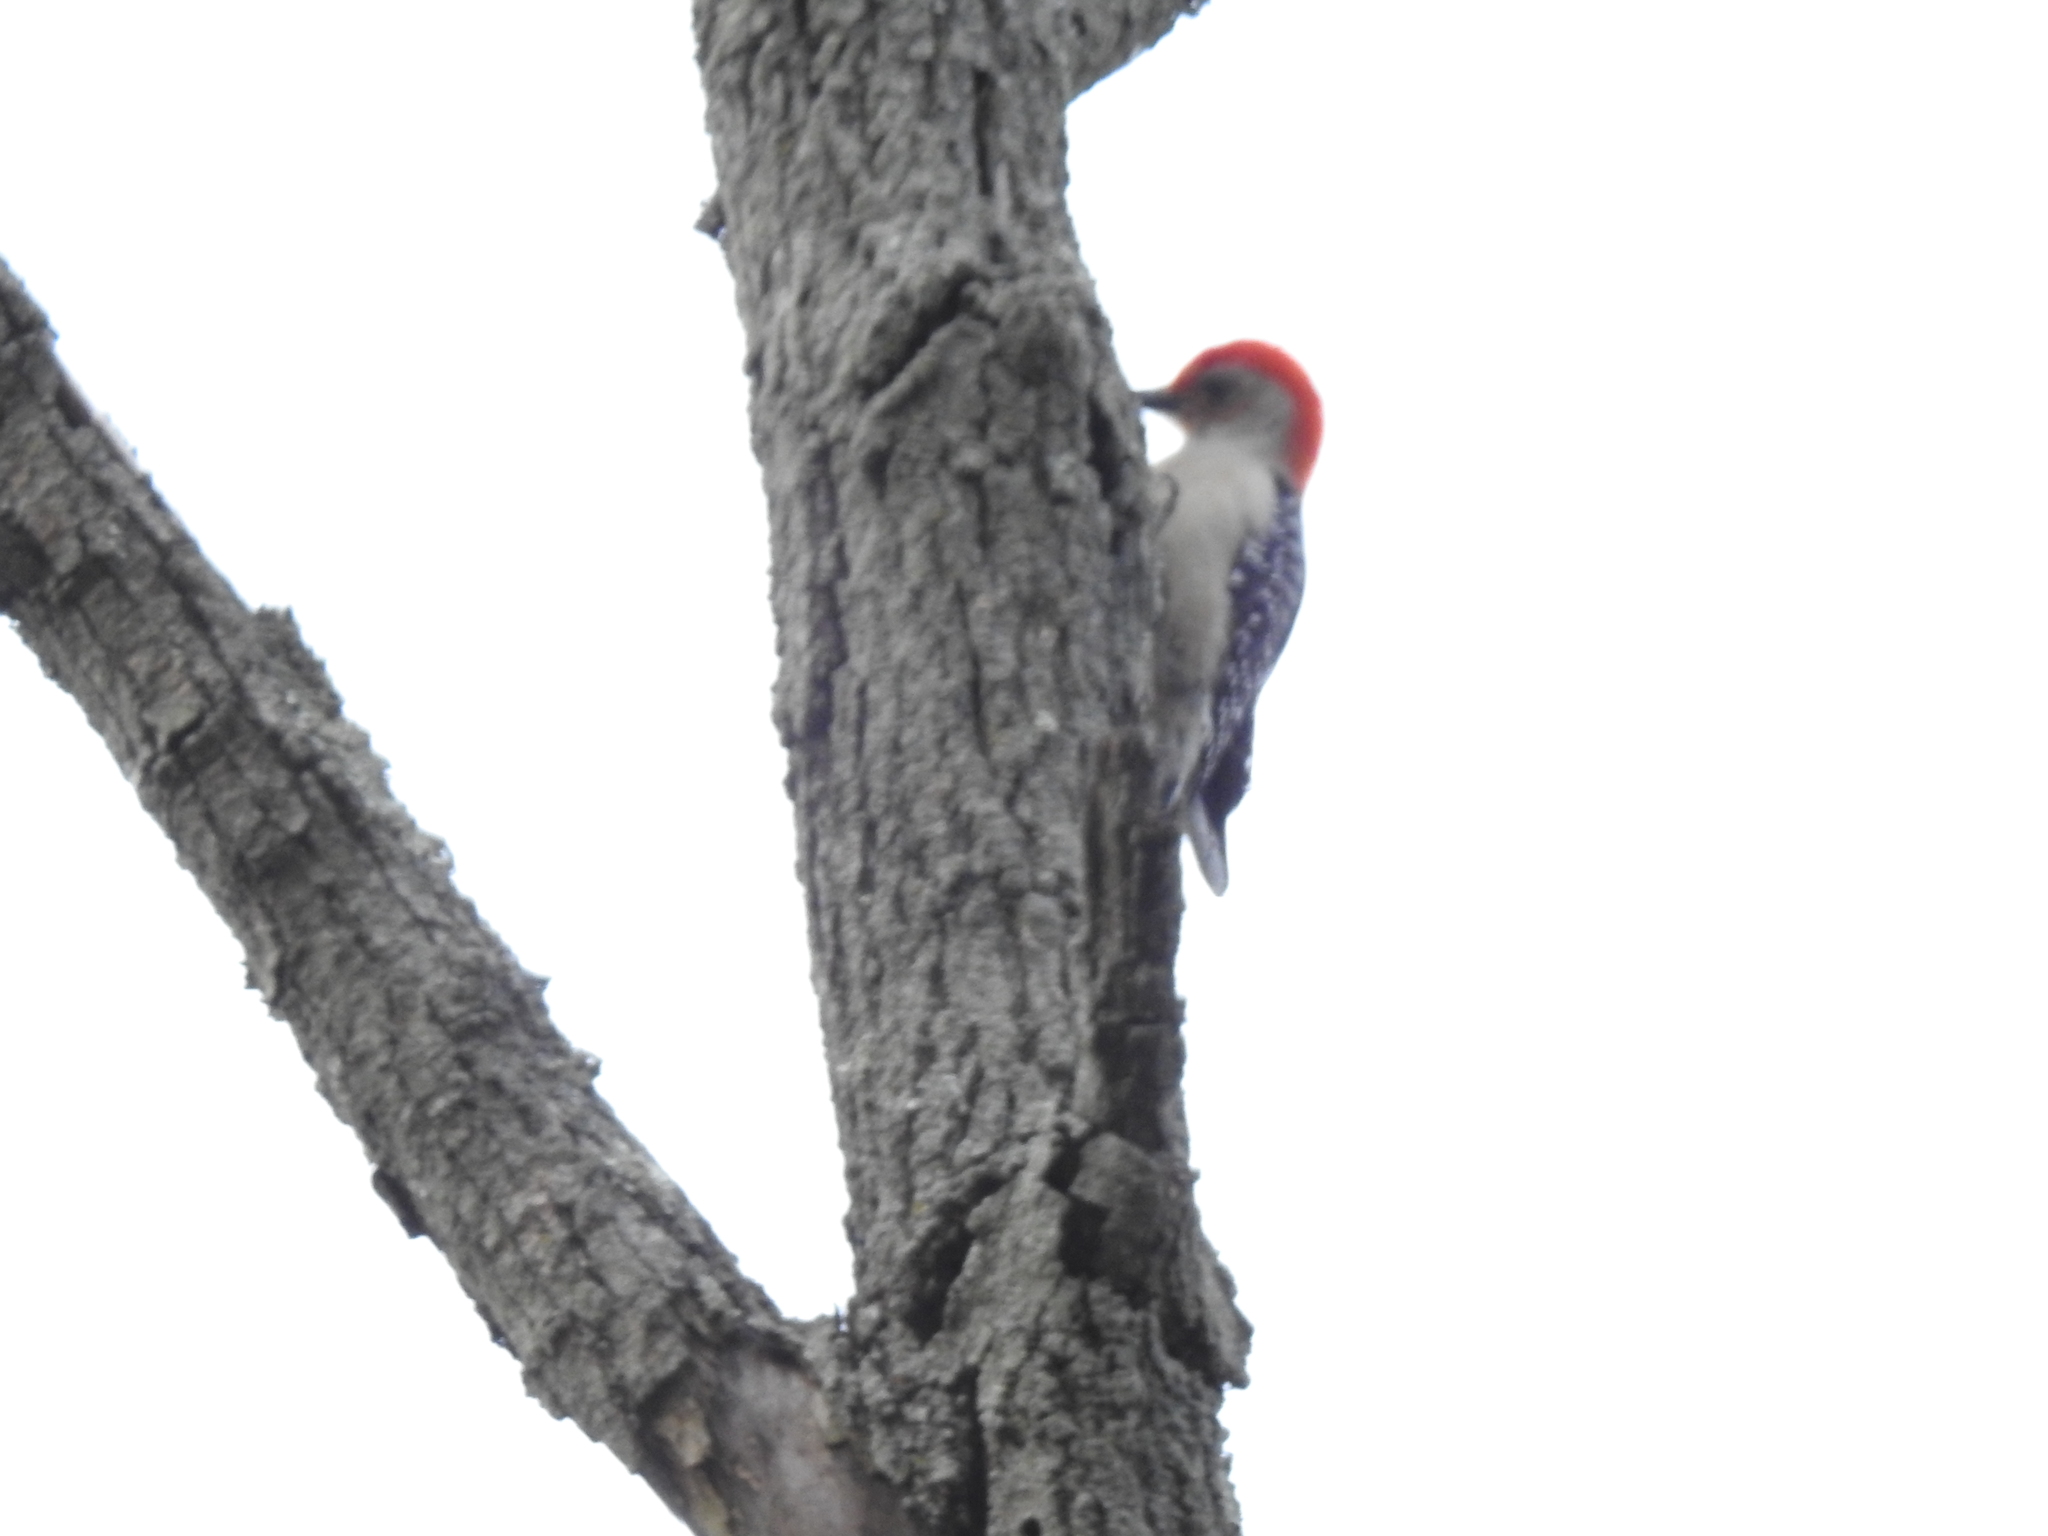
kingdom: Animalia
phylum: Chordata
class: Aves
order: Piciformes
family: Picidae
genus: Melanerpes
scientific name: Melanerpes carolinus
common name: Red-bellied woodpecker
